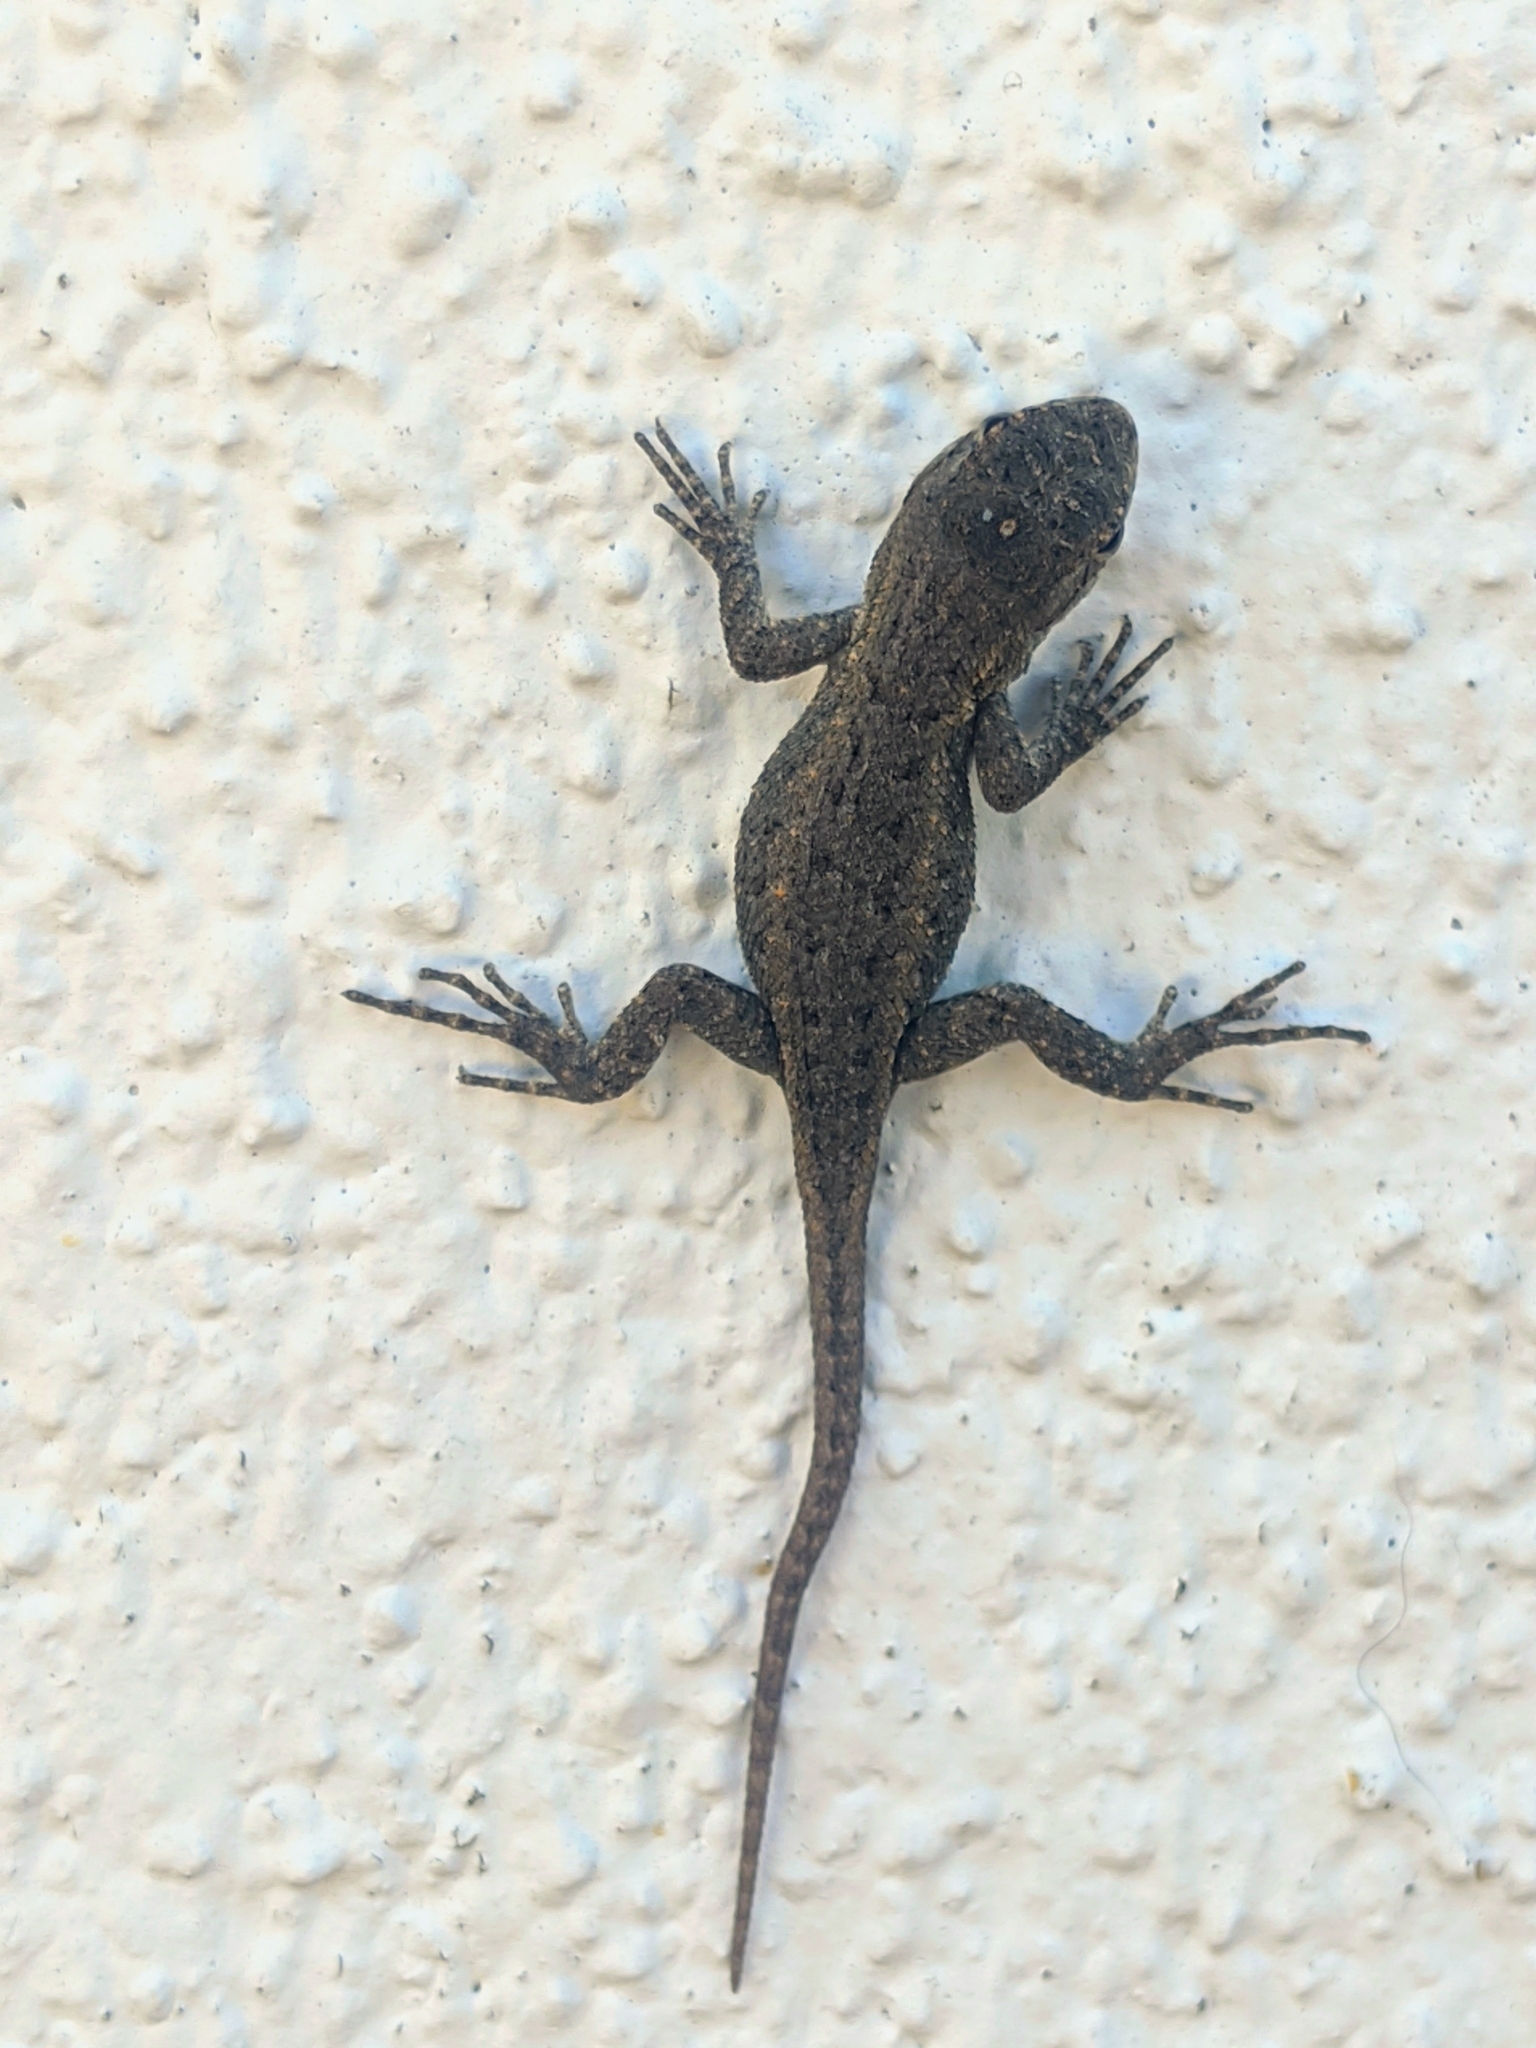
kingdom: Animalia
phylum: Chordata
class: Squamata
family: Phrynosomatidae
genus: Sceloporus
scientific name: Sceloporus occidentalis
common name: Western fence lizard
